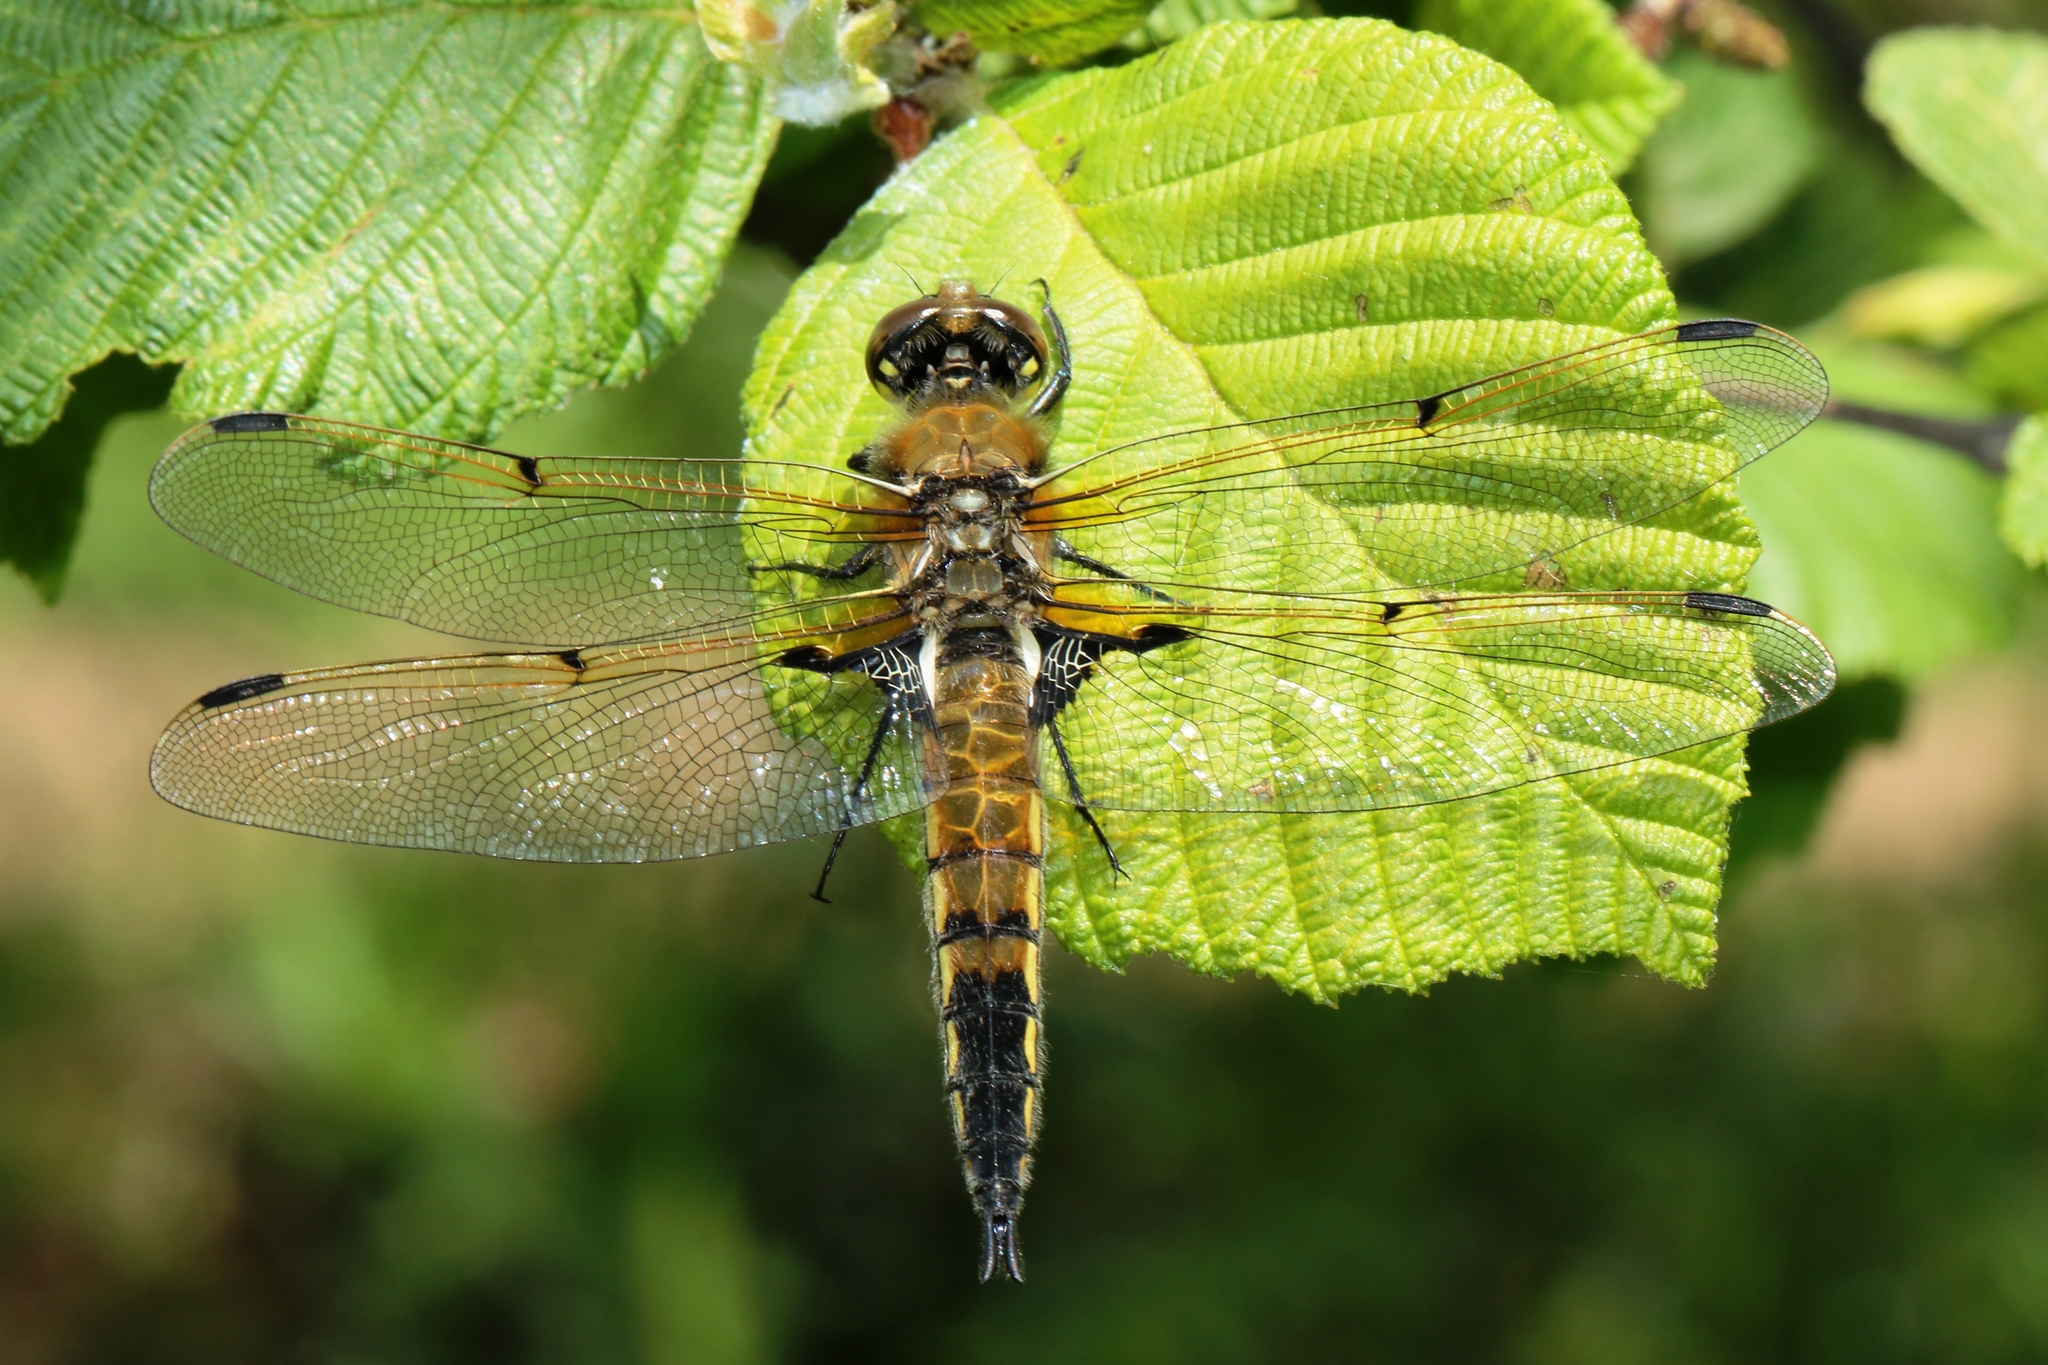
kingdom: Animalia
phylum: Arthropoda
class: Insecta
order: Odonata
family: Libellulidae
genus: Libellula
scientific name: Libellula quadrimaculata
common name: Four-spotted chaser
